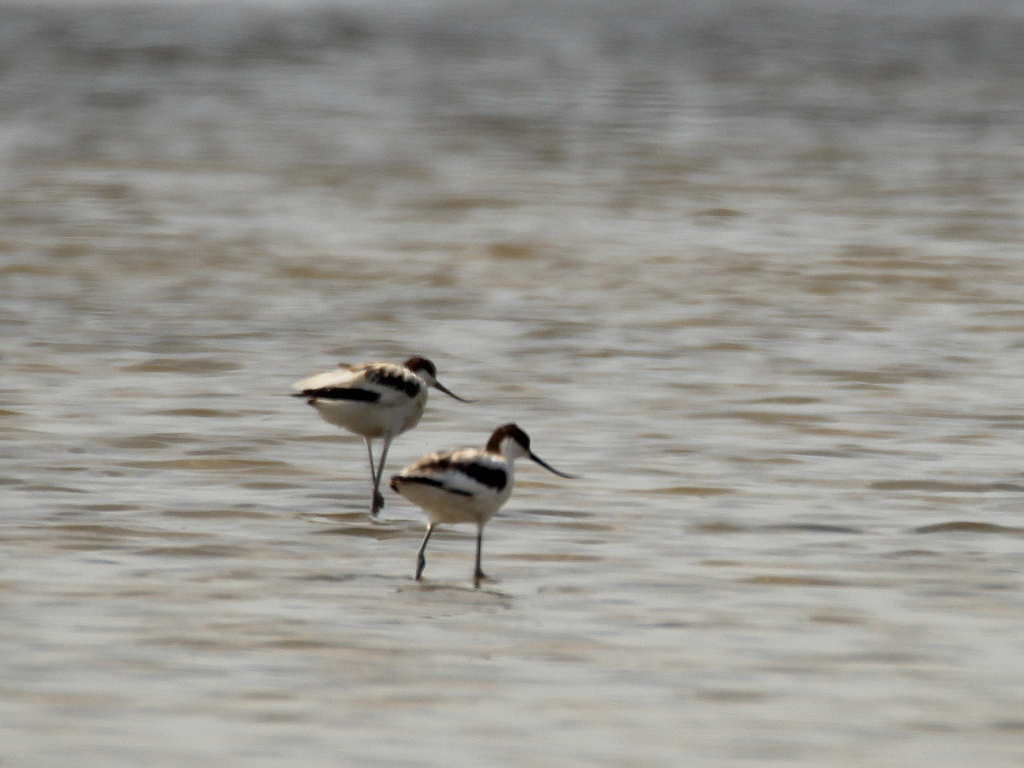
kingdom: Animalia
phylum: Chordata
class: Aves
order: Charadriiformes
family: Recurvirostridae
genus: Recurvirostra
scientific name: Recurvirostra avosetta
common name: Pied avocet
